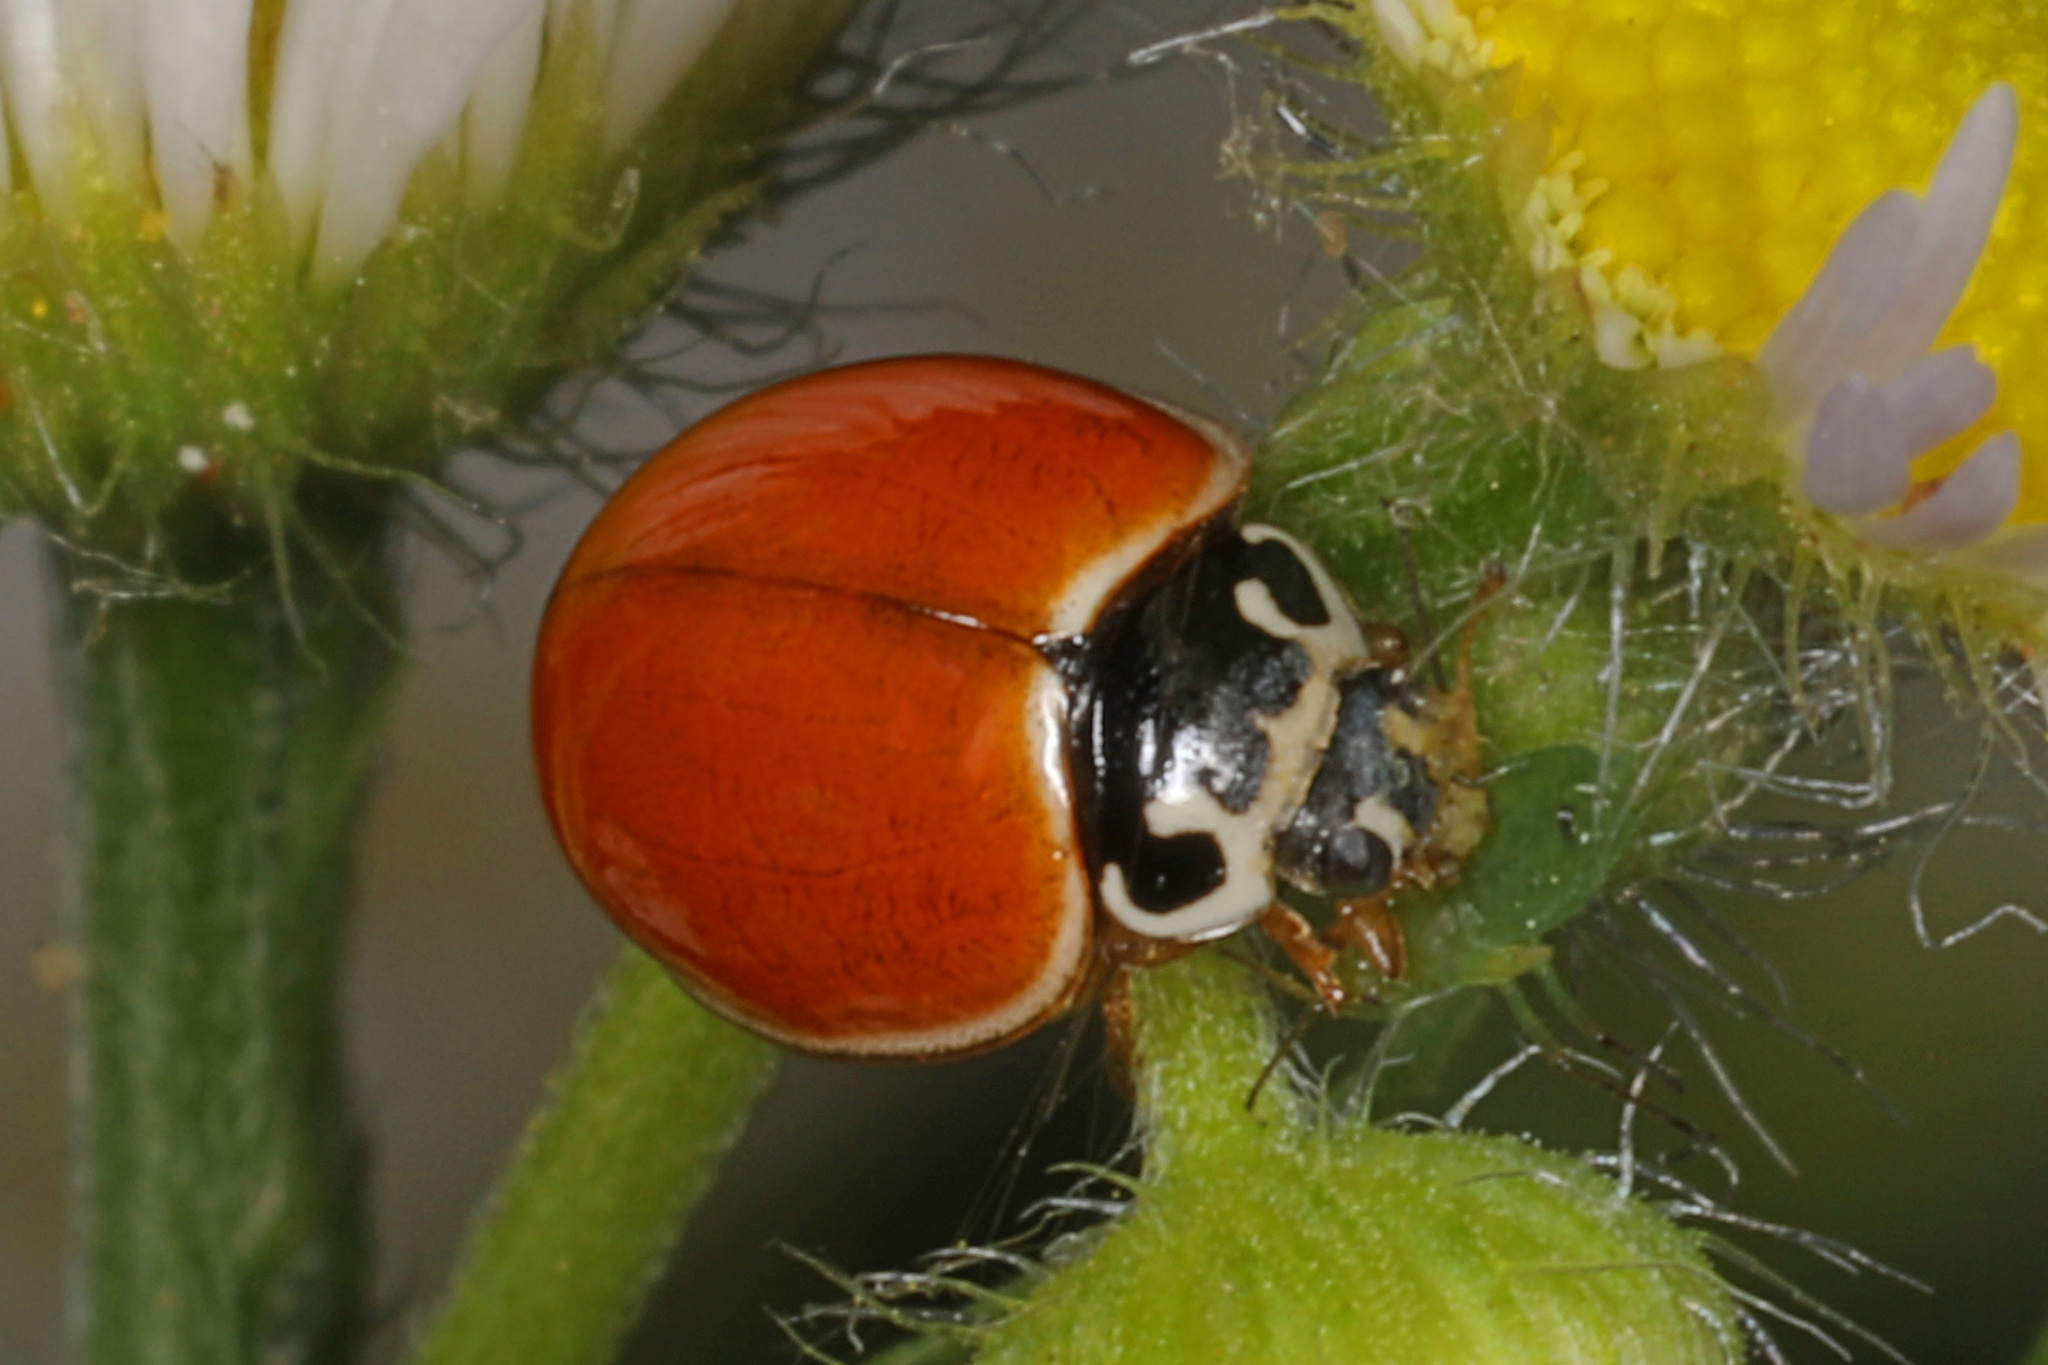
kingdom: Animalia
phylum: Arthropoda
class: Insecta
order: Coleoptera
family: Coccinellidae
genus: Cycloneda
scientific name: Cycloneda munda
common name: Polished lady beetle
